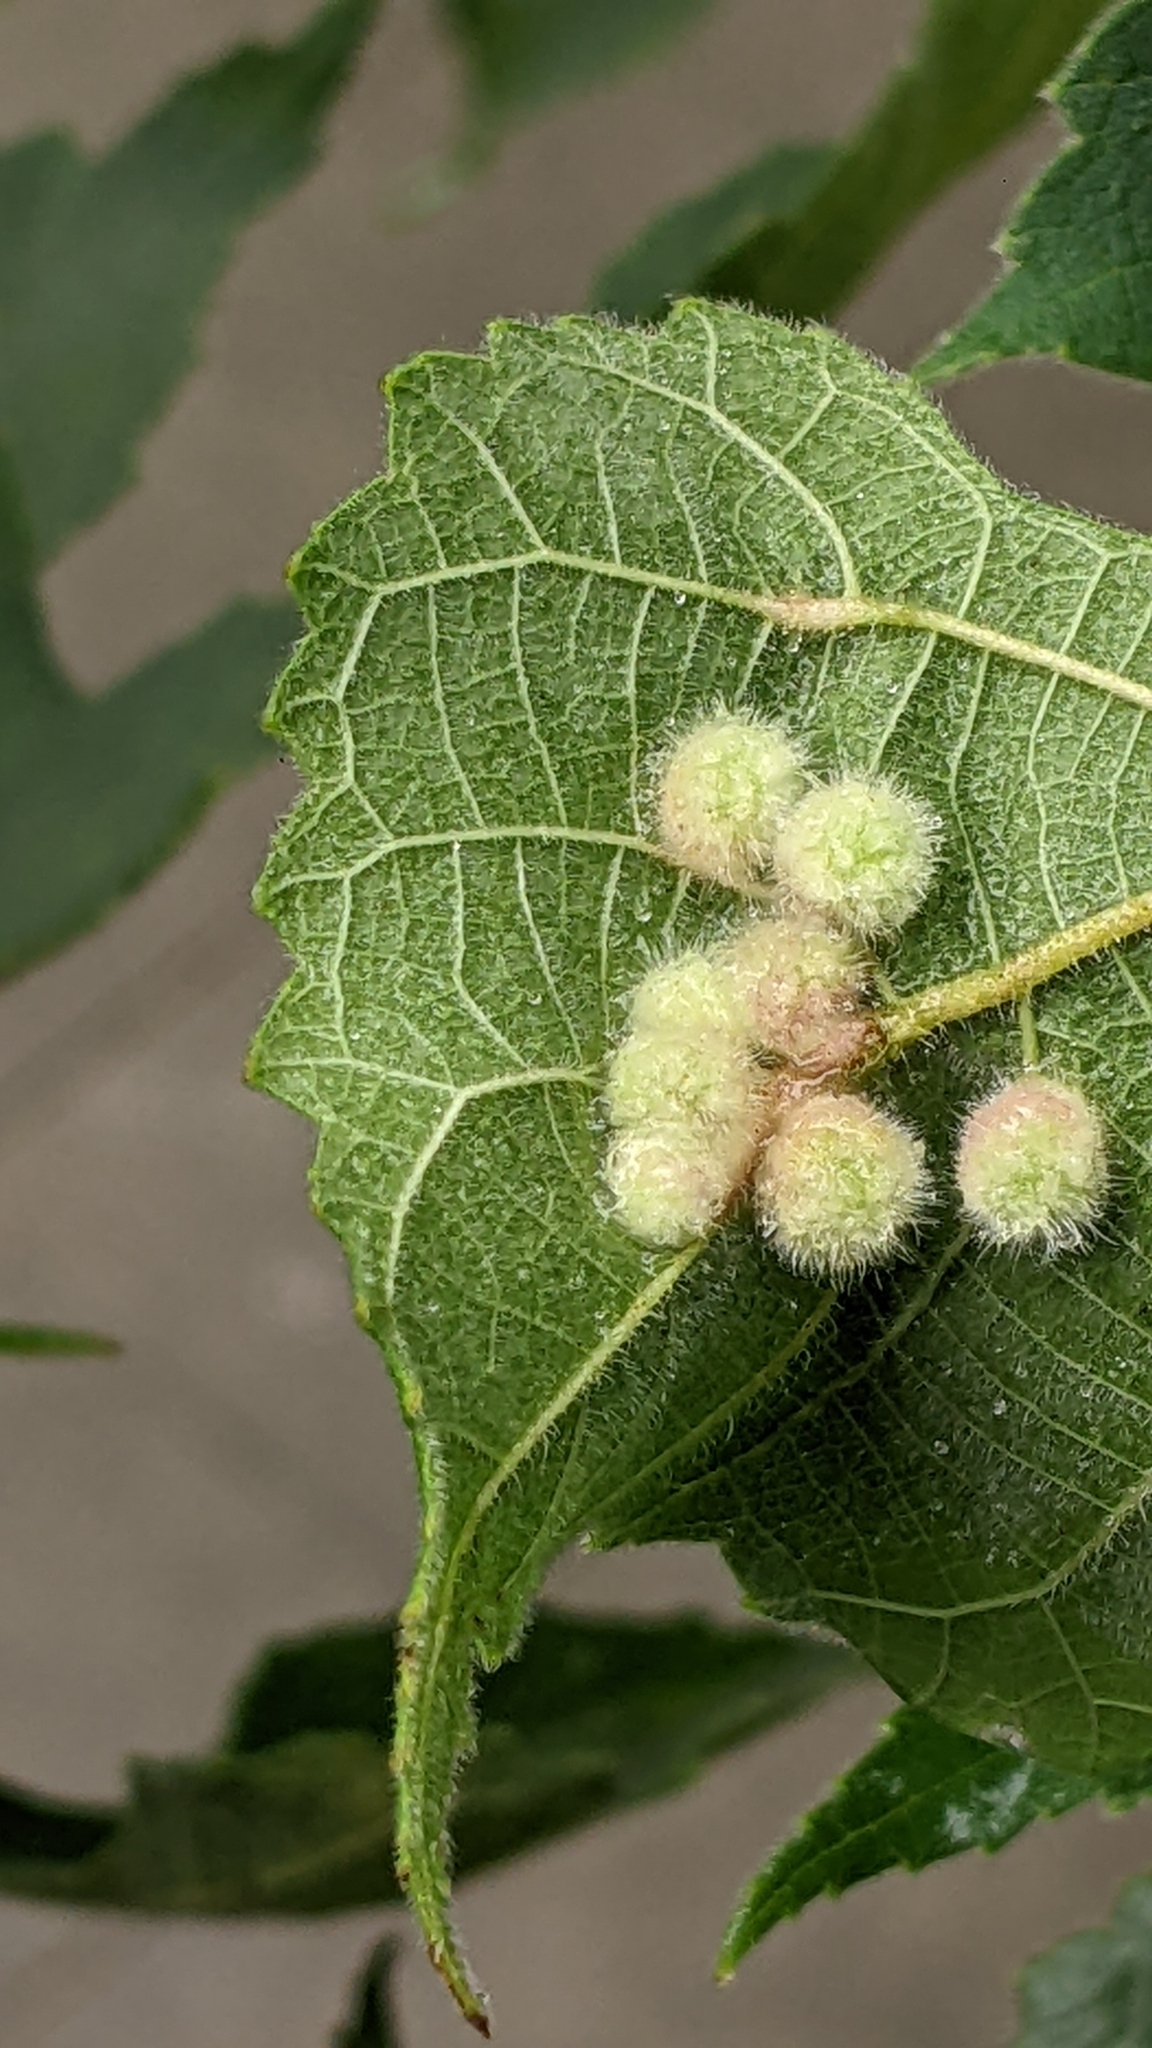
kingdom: Animalia
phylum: Arthropoda
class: Insecta
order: Diptera
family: Cecidomyiidae
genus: Schizomyia
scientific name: Schizomyia broussonetiae
